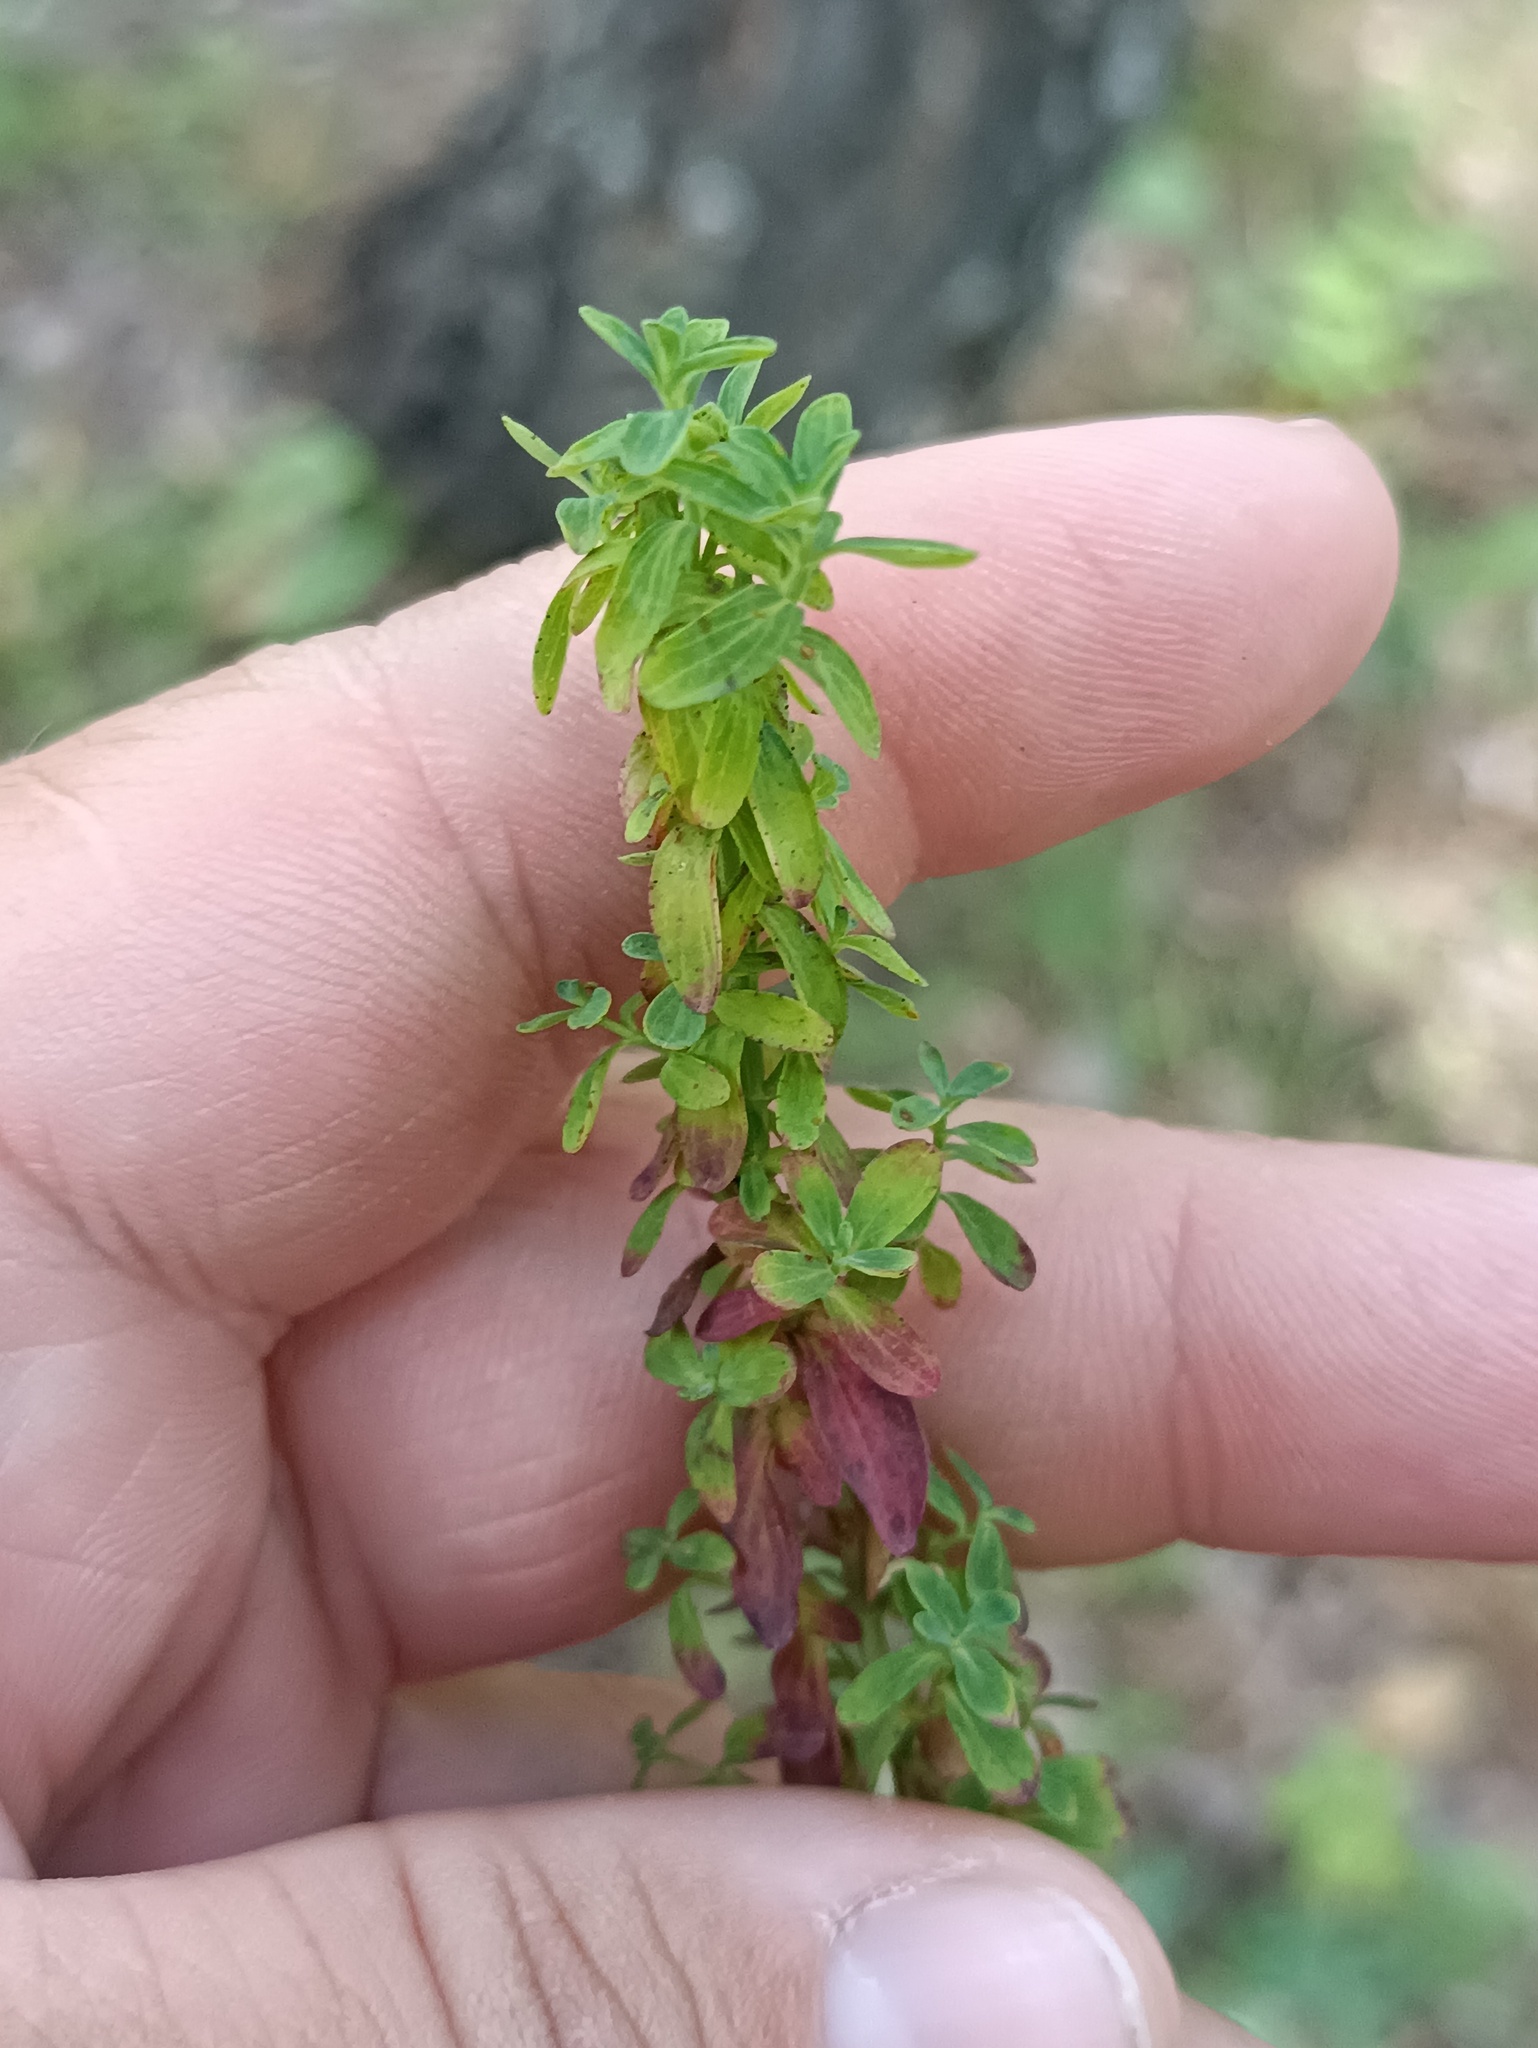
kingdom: Plantae
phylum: Tracheophyta
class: Magnoliopsida
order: Malpighiales
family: Hypericaceae
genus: Hypericum
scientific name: Hypericum perforatum
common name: Common st. johnswort
